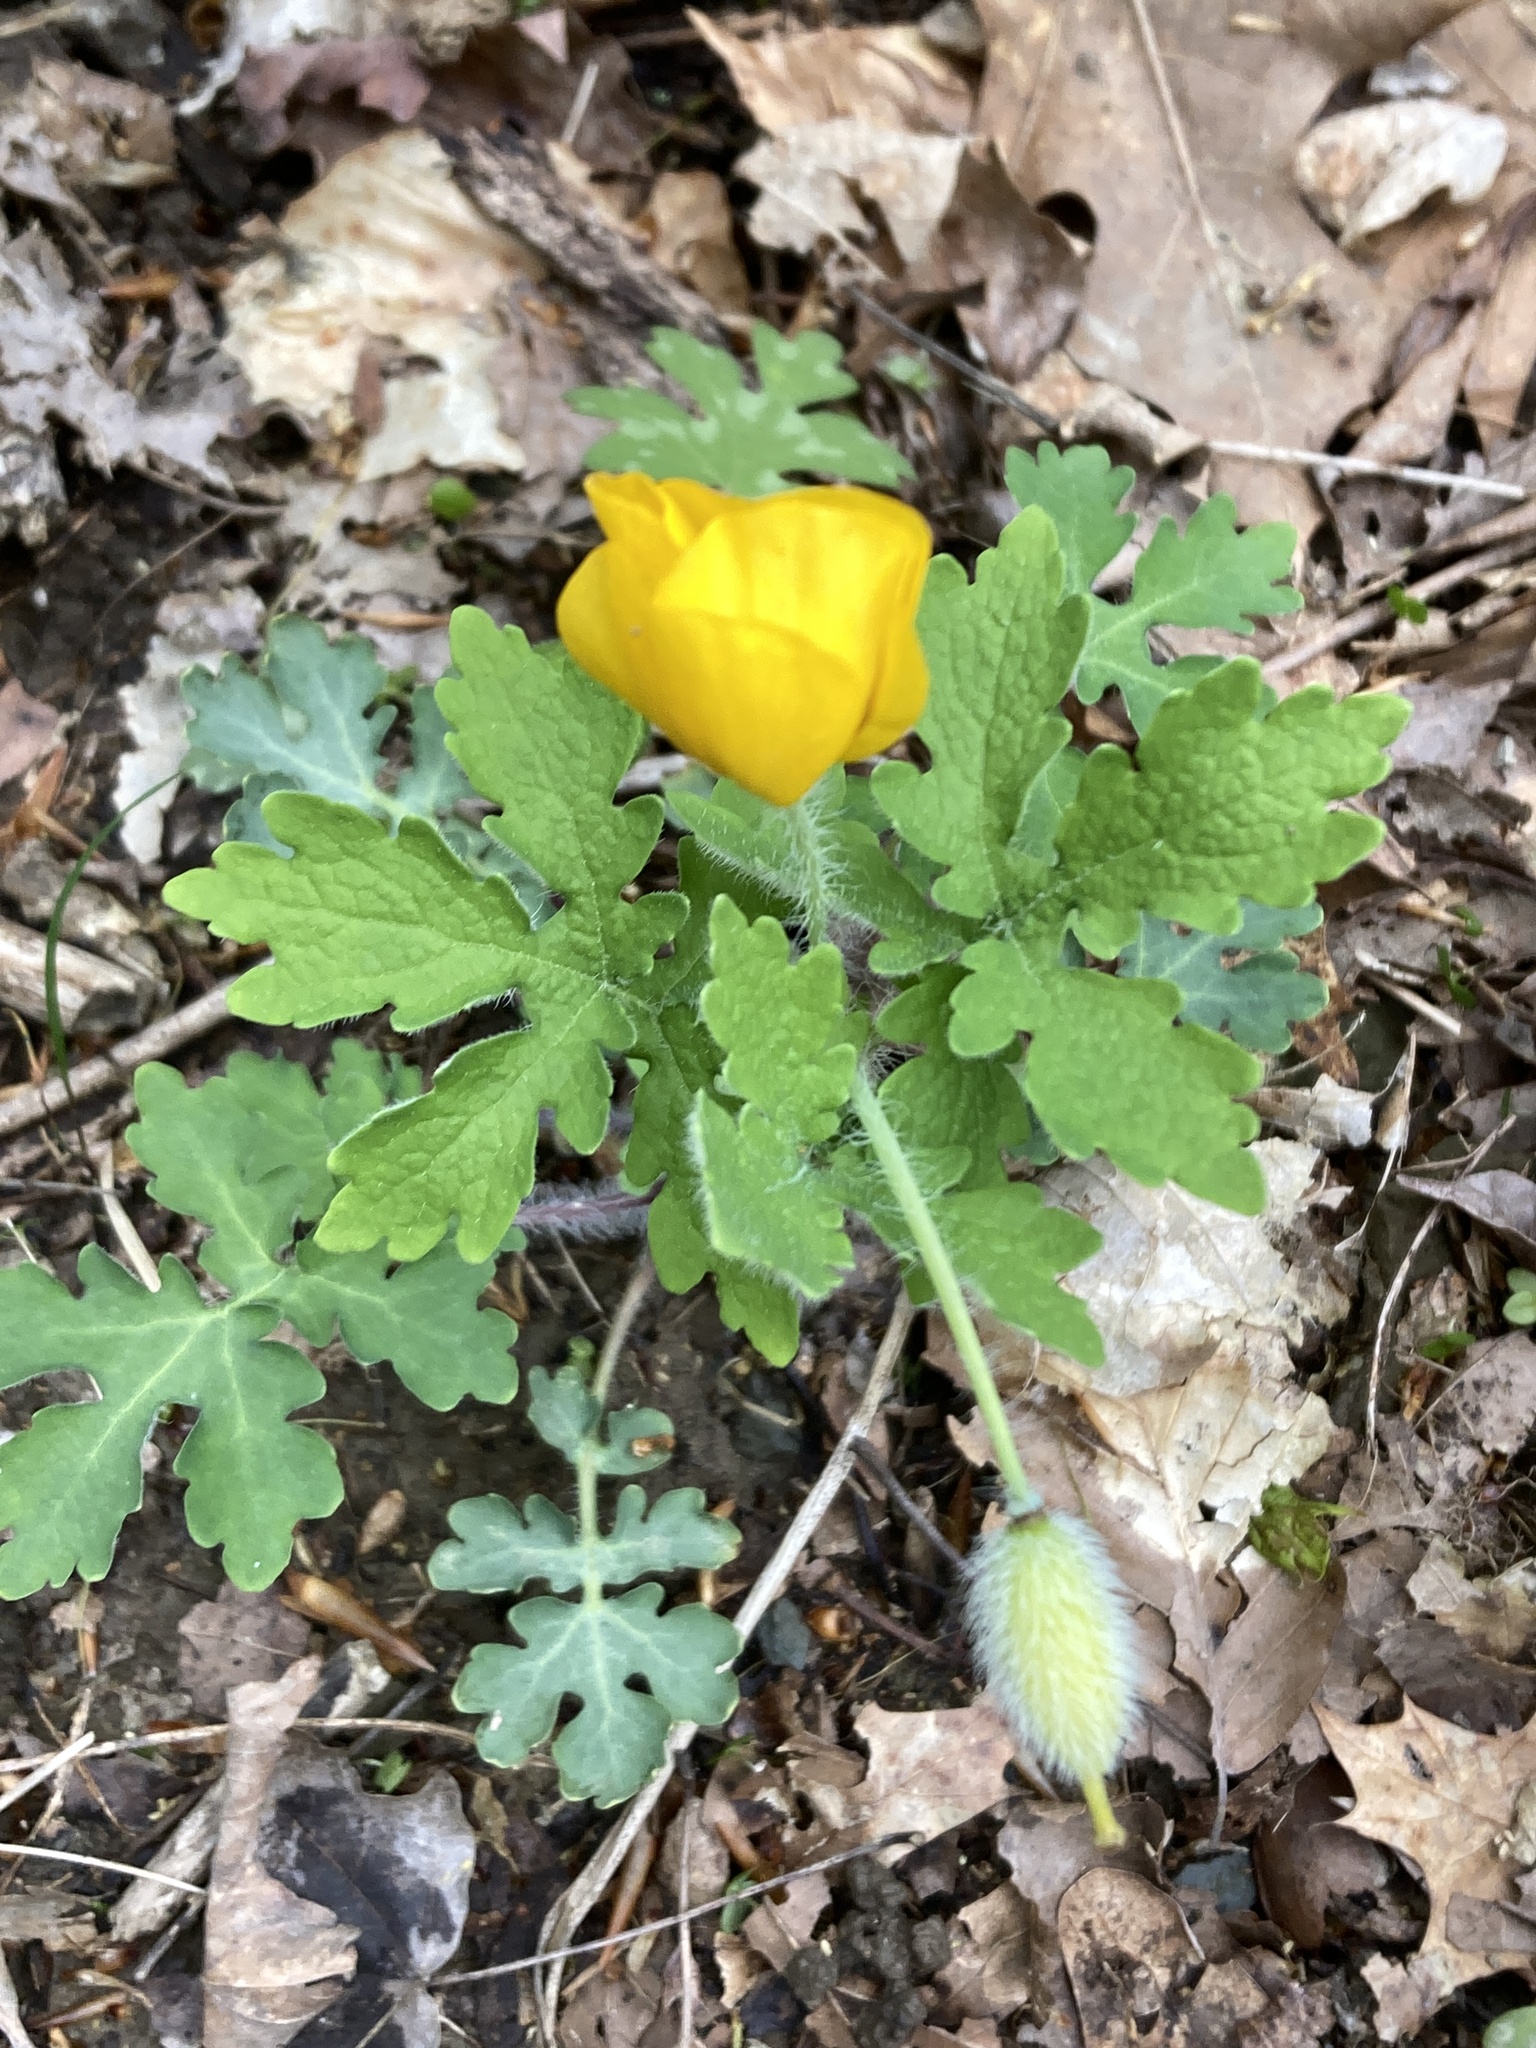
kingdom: Plantae
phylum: Tracheophyta
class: Magnoliopsida
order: Ranunculales
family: Papaveraceae
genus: Stylophorum
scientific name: Stylophorum diphyllum
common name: Celandine poppy
